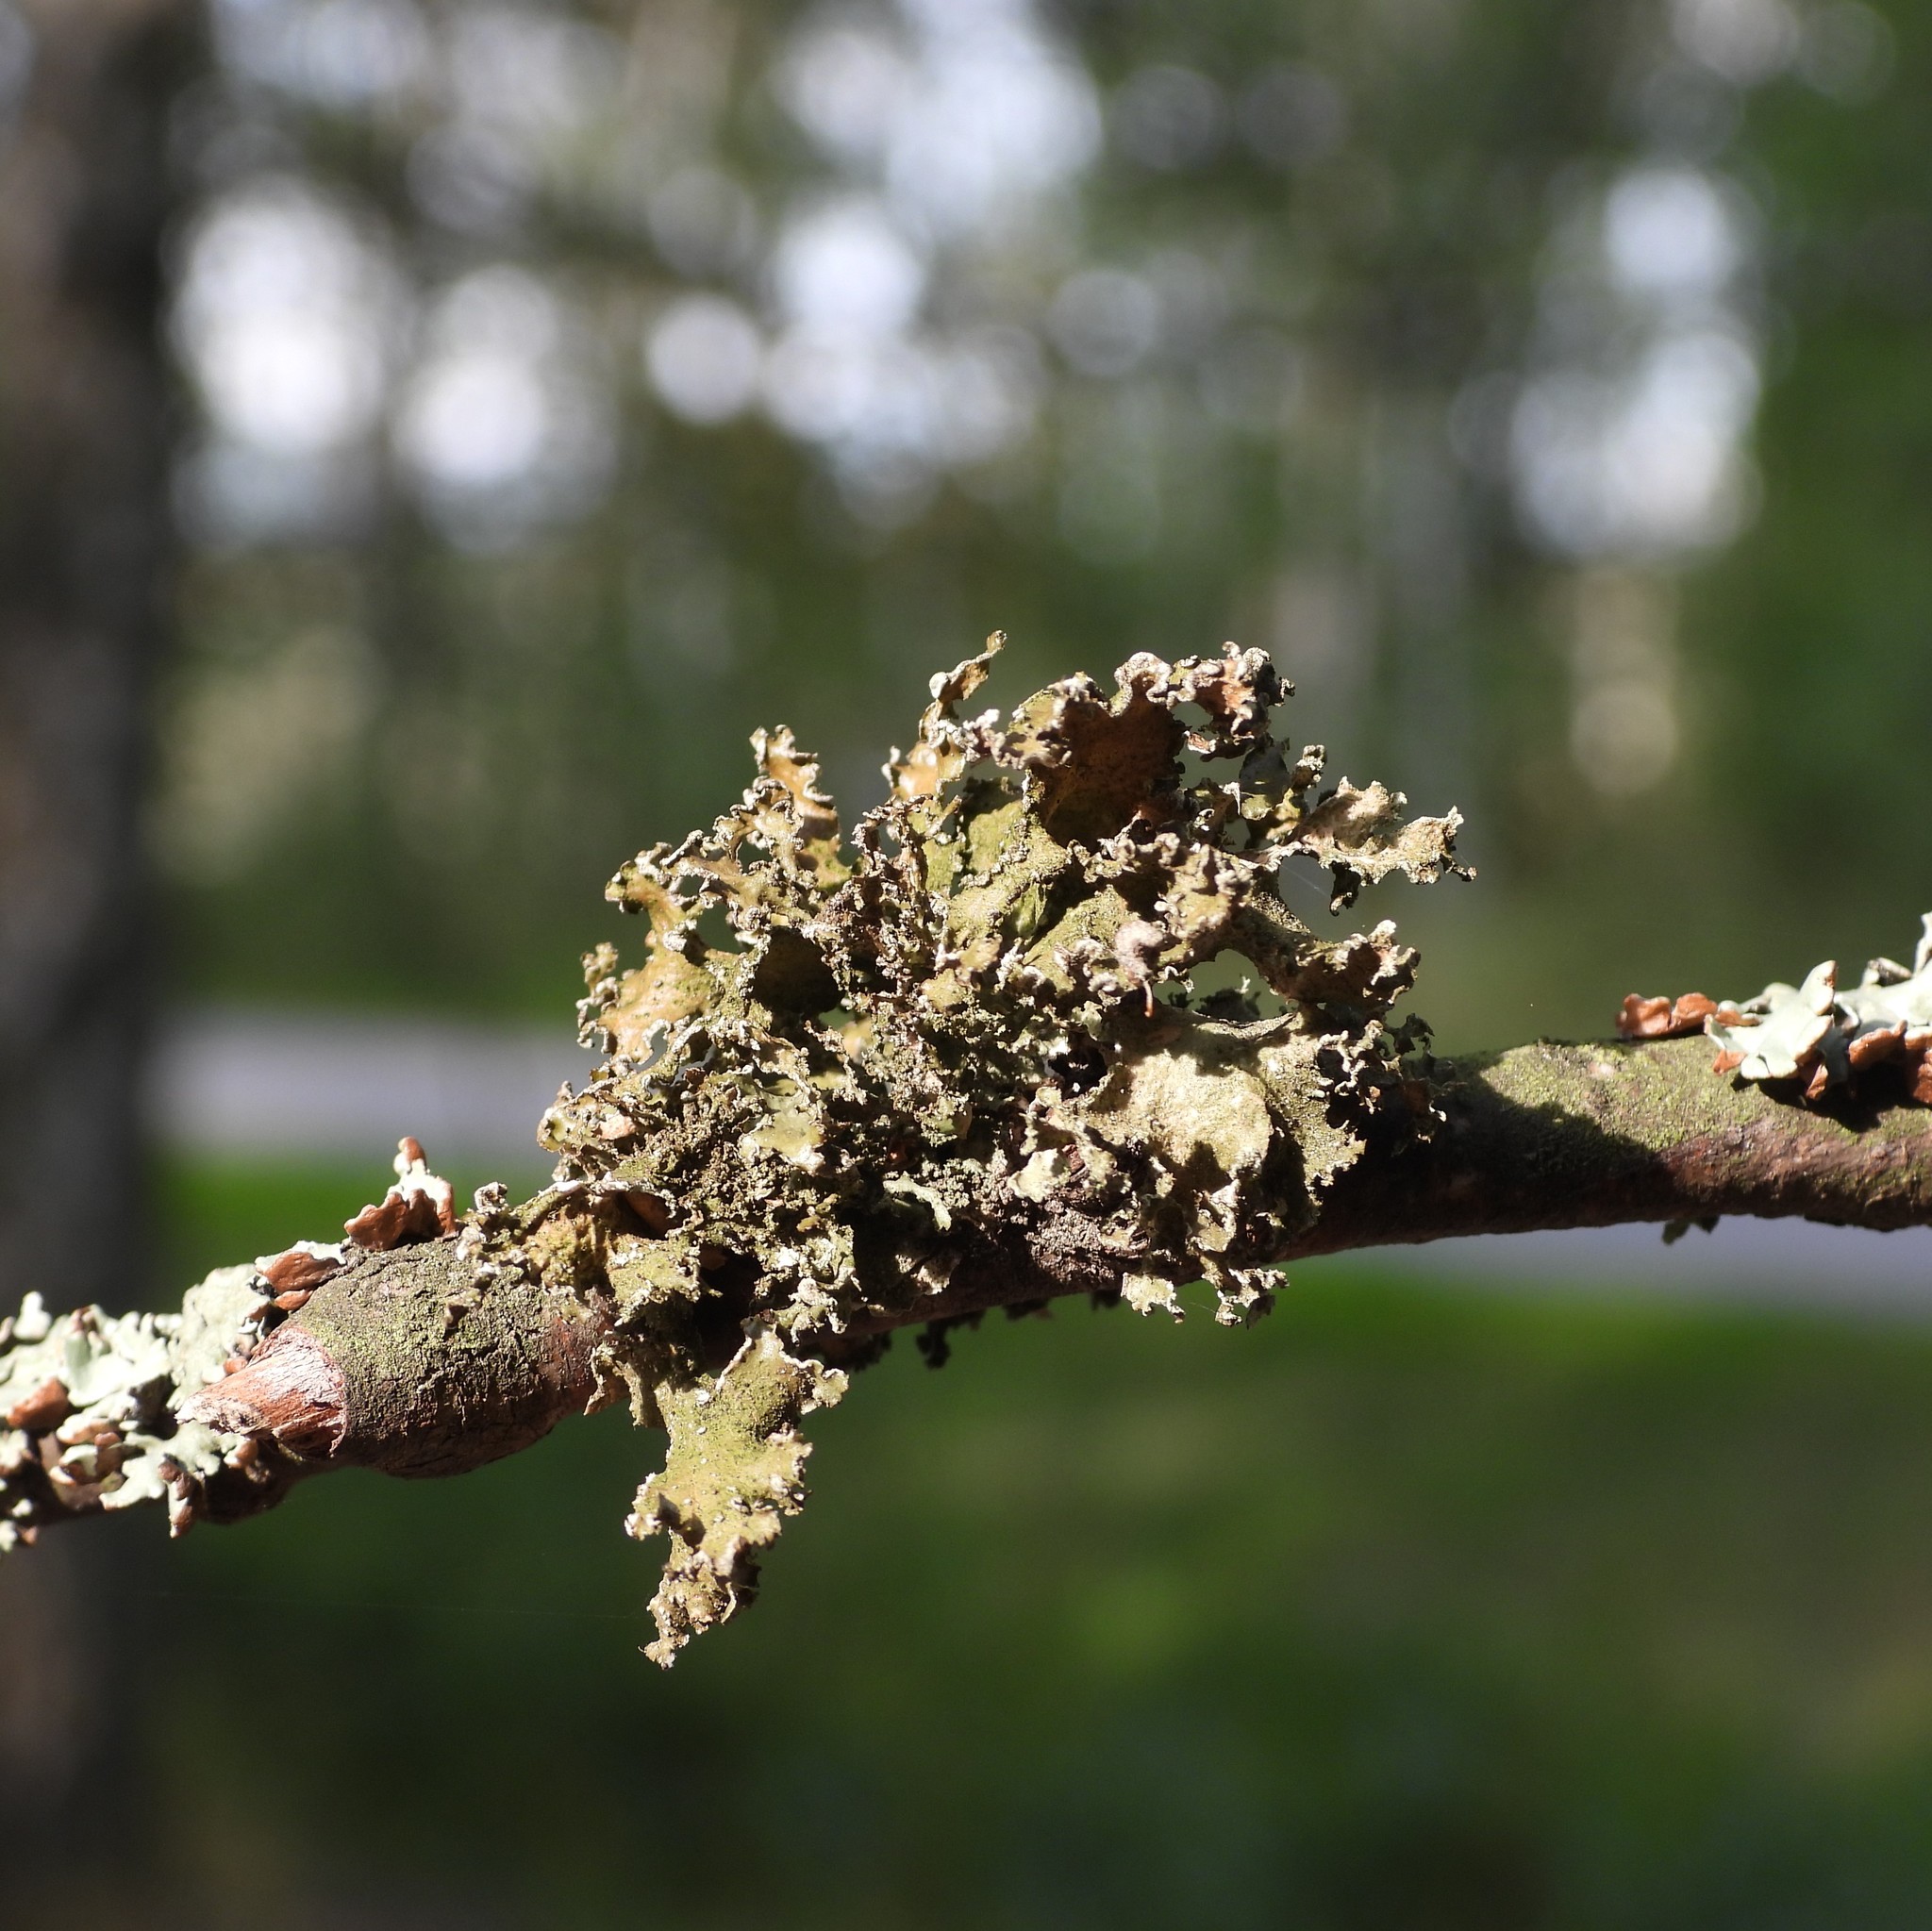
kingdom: Fungi
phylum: Ascomycota
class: Lecanoromycetes
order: Lecanorales
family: Parmeliaceae
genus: Nephromopsis
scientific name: Nephromopsis chlorophylla
